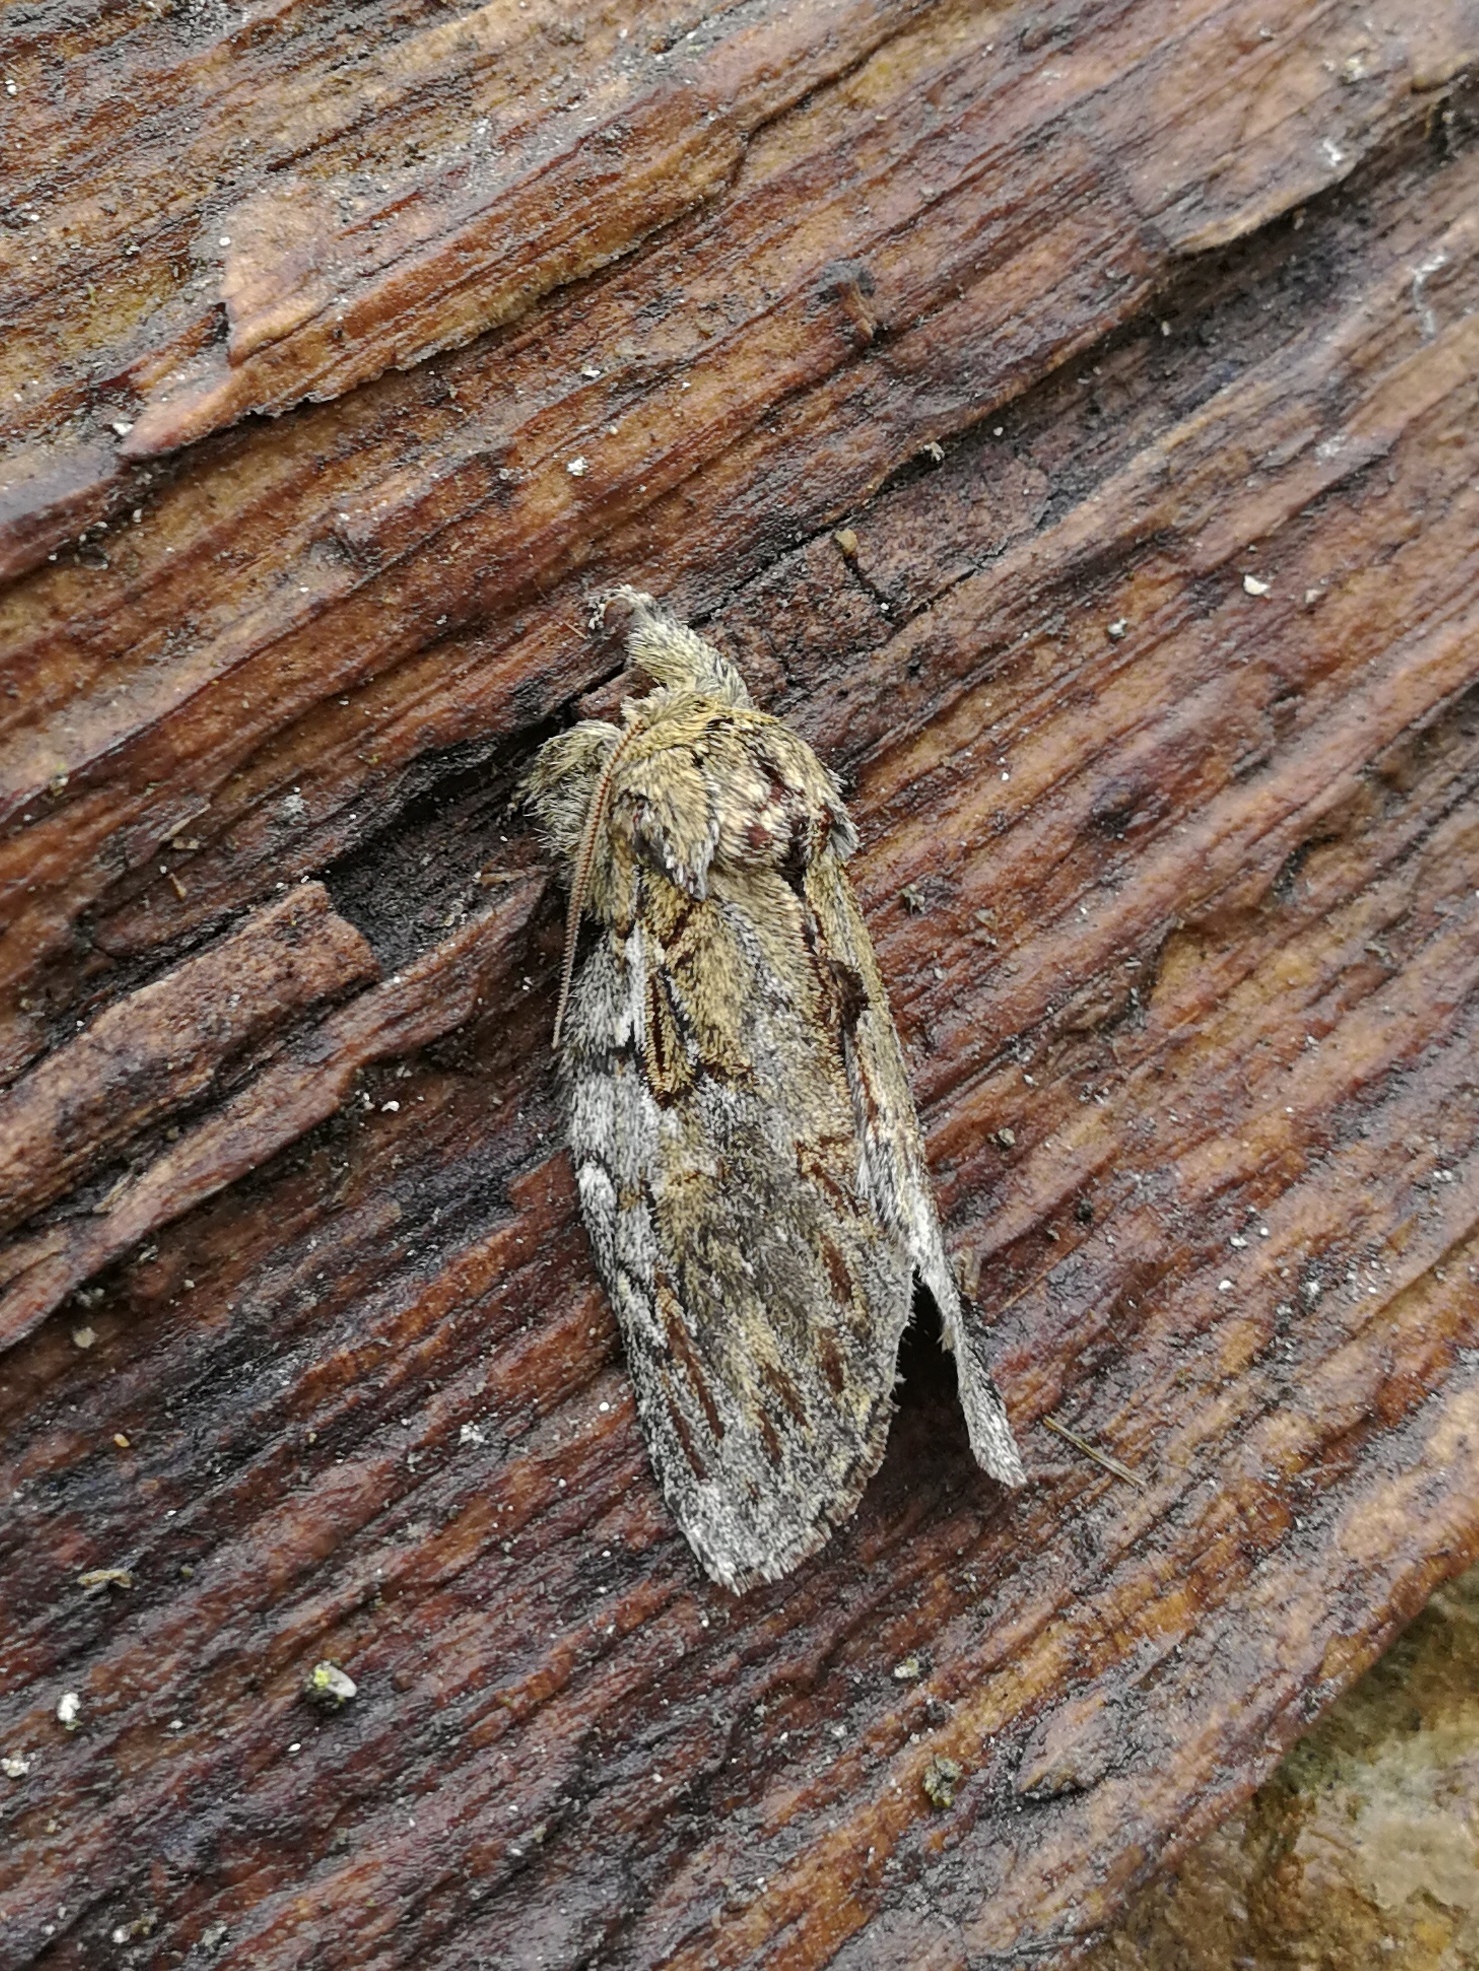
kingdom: Animalia
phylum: Arthropoda
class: Insecta
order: Lepidoptera
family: Notodontidae
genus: Peridea
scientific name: Peridea anceps
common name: Great prominent
